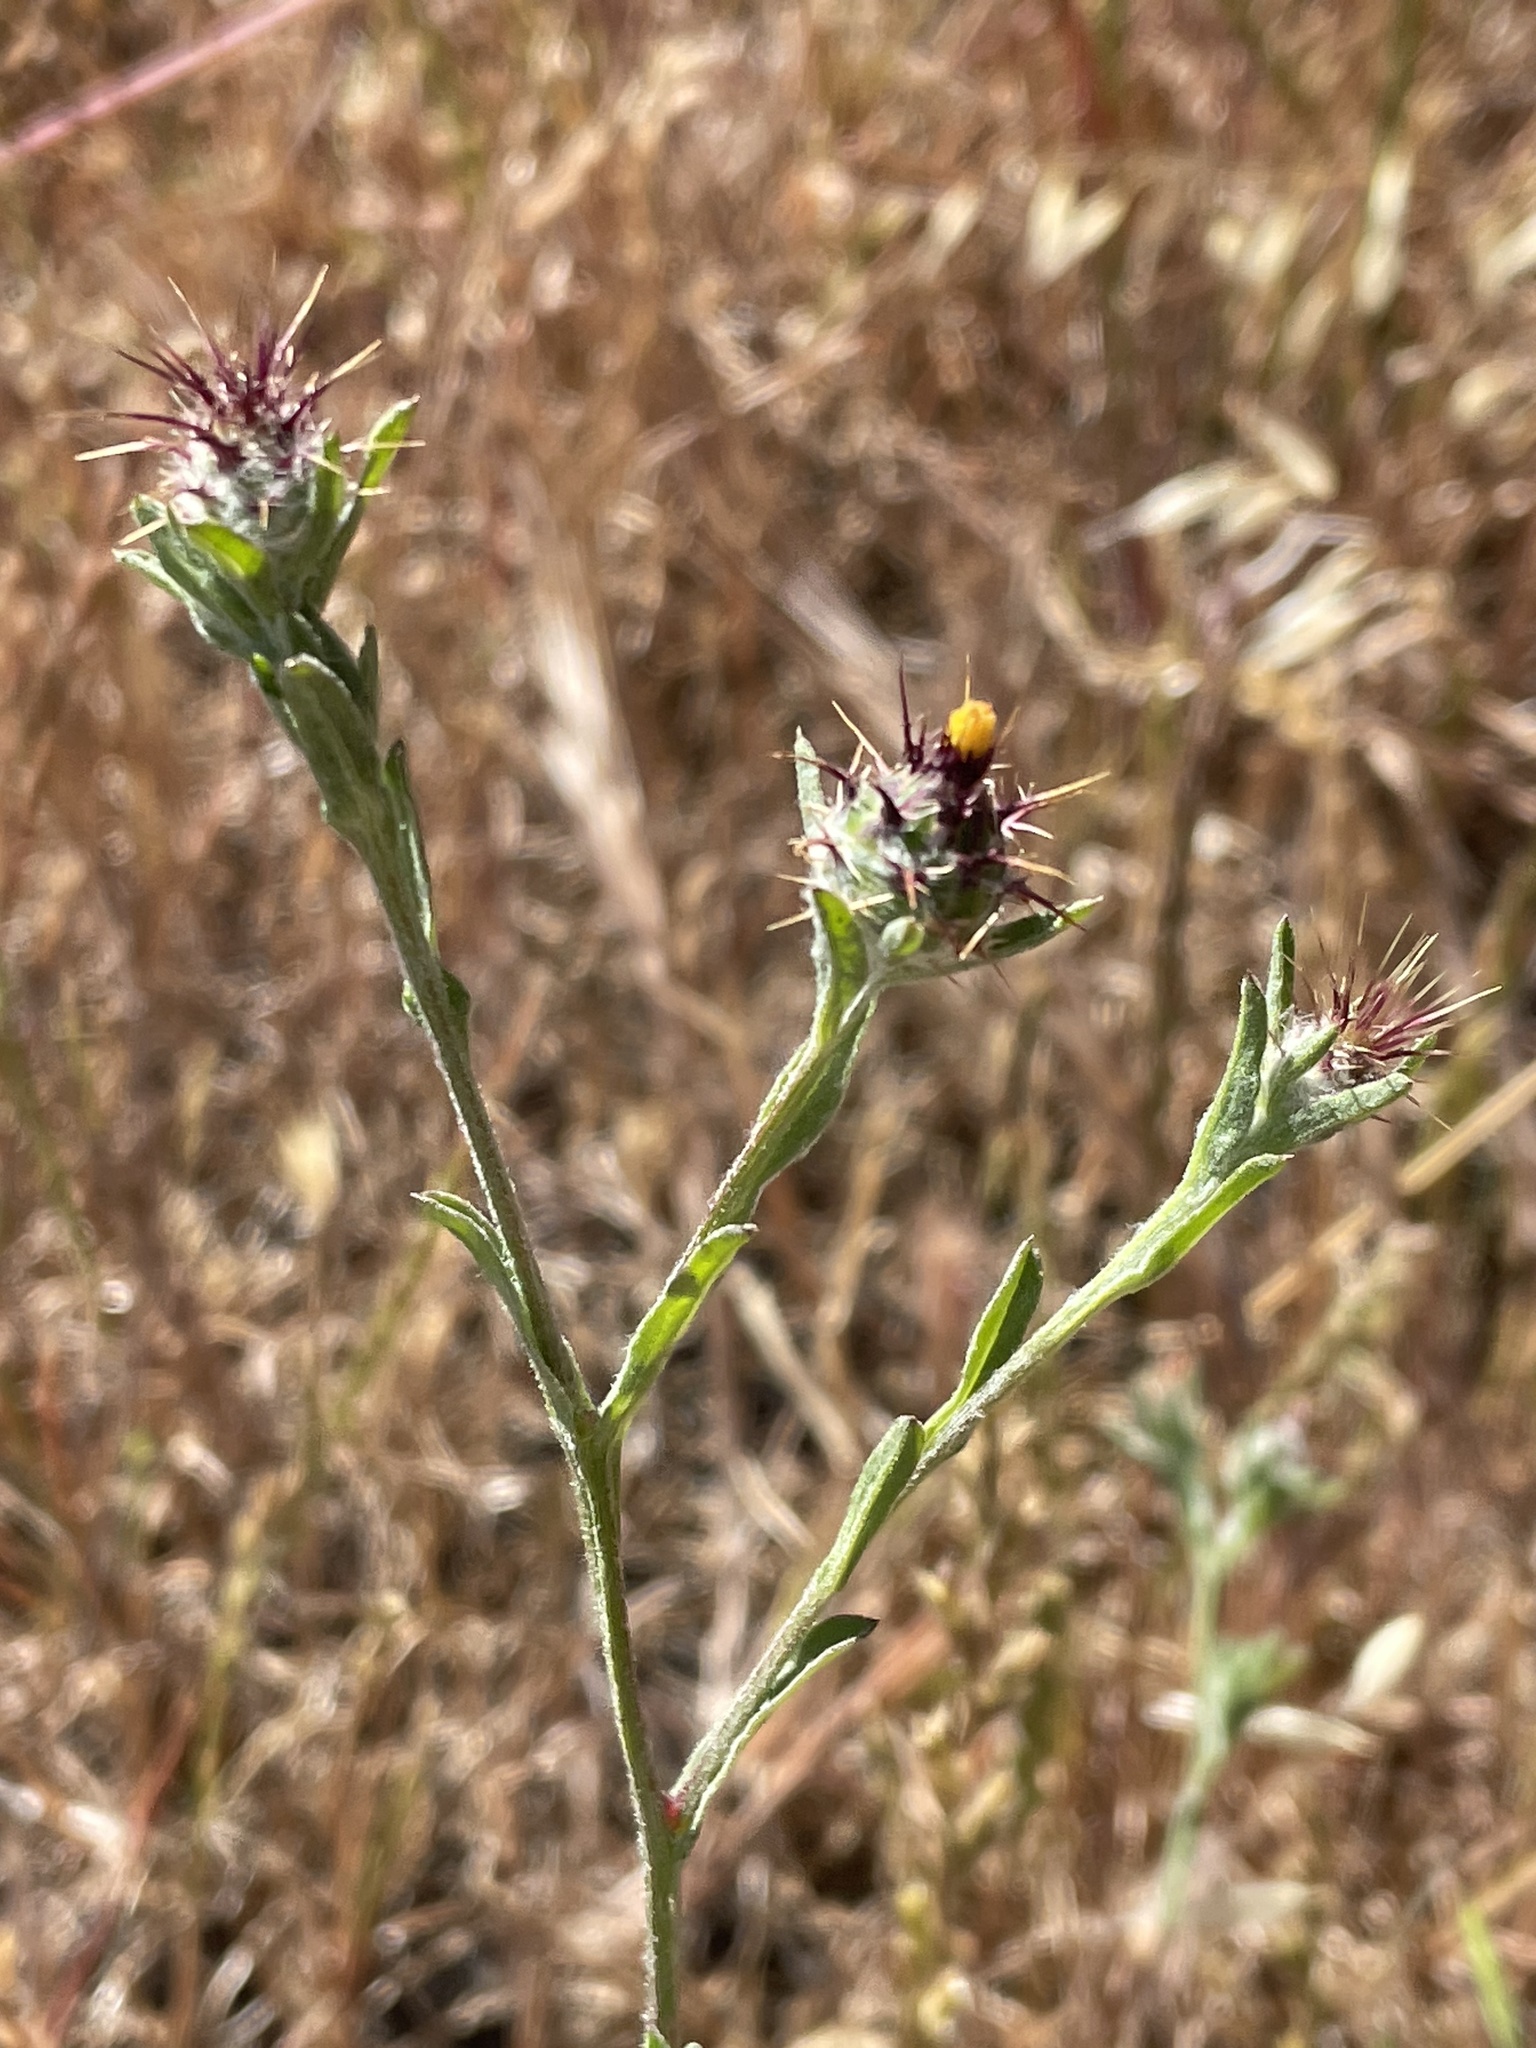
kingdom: Plantae
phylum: Tracheophyta
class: Magnoliopsida
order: Asterales
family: Asteraceae
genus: Centaurea
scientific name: Centaurea melitensis
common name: Maltese star-thistle
